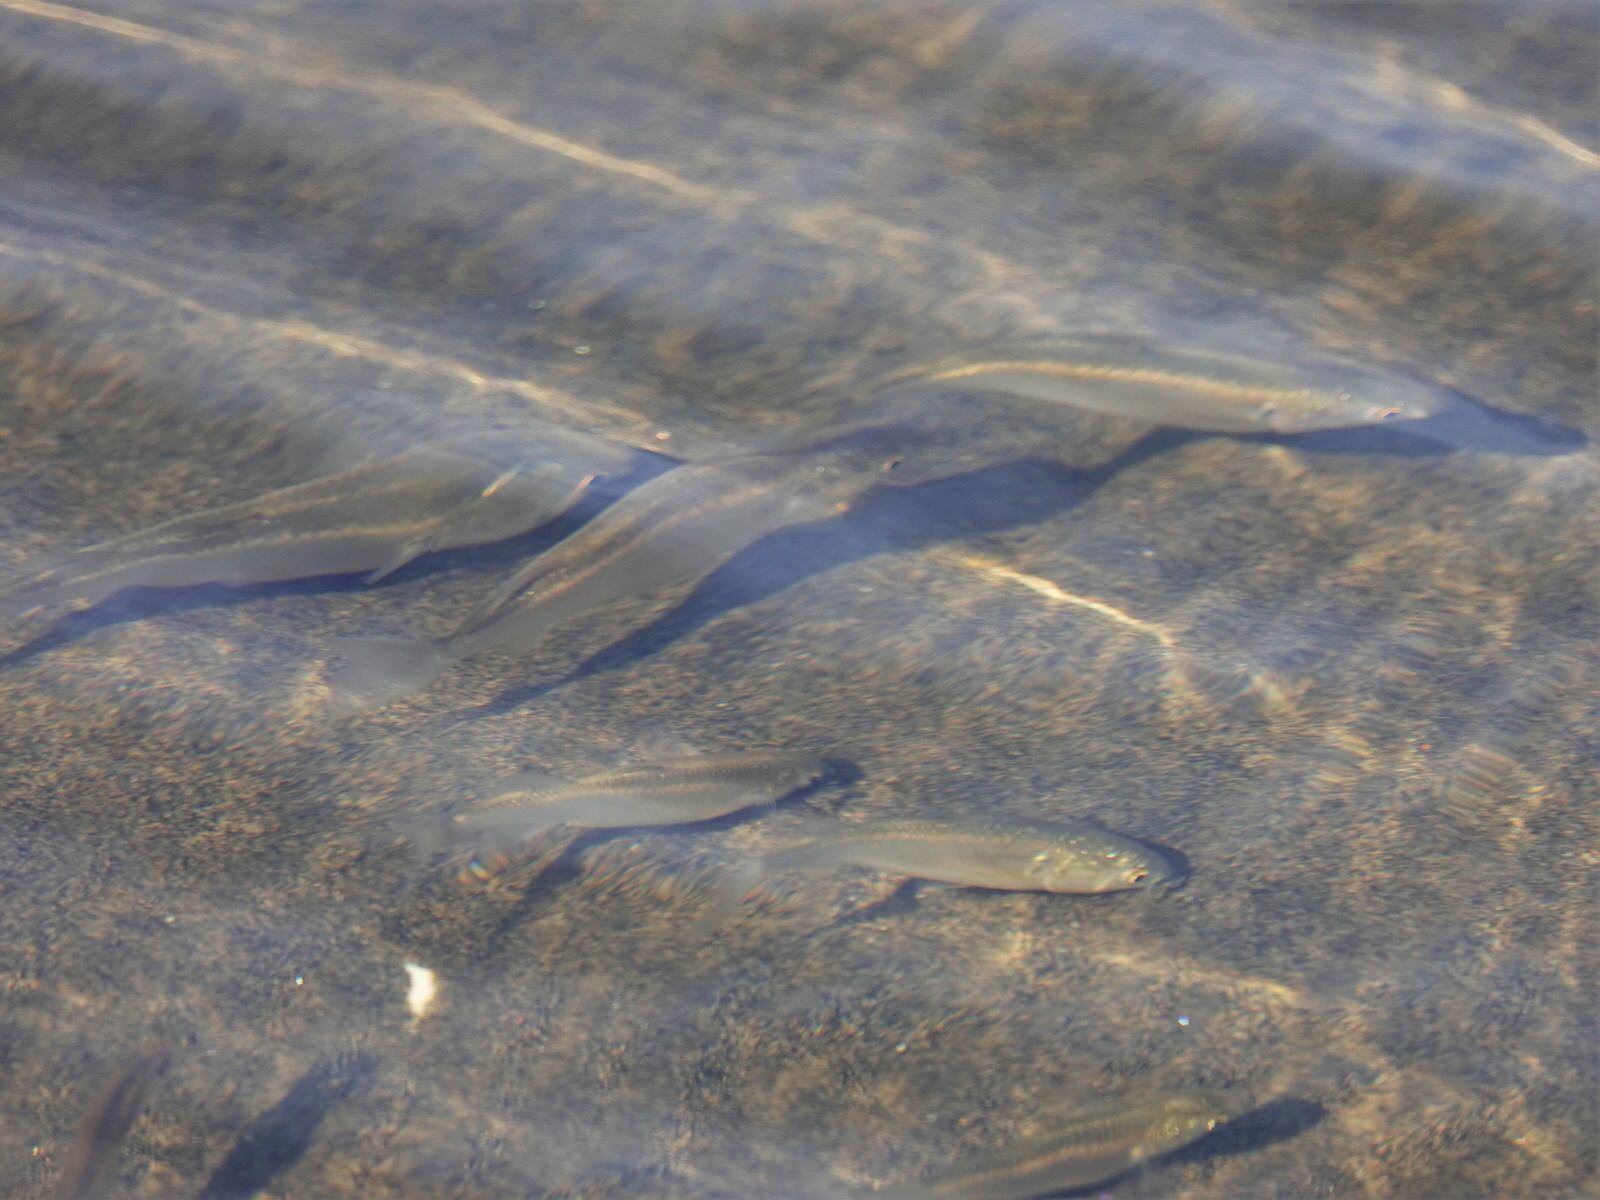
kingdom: Animalia
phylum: Chordata
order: Mugiliformes
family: Mugilidae
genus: Aldrichetta
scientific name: Aldrichetta forsteri
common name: Yellow-eye mullet
